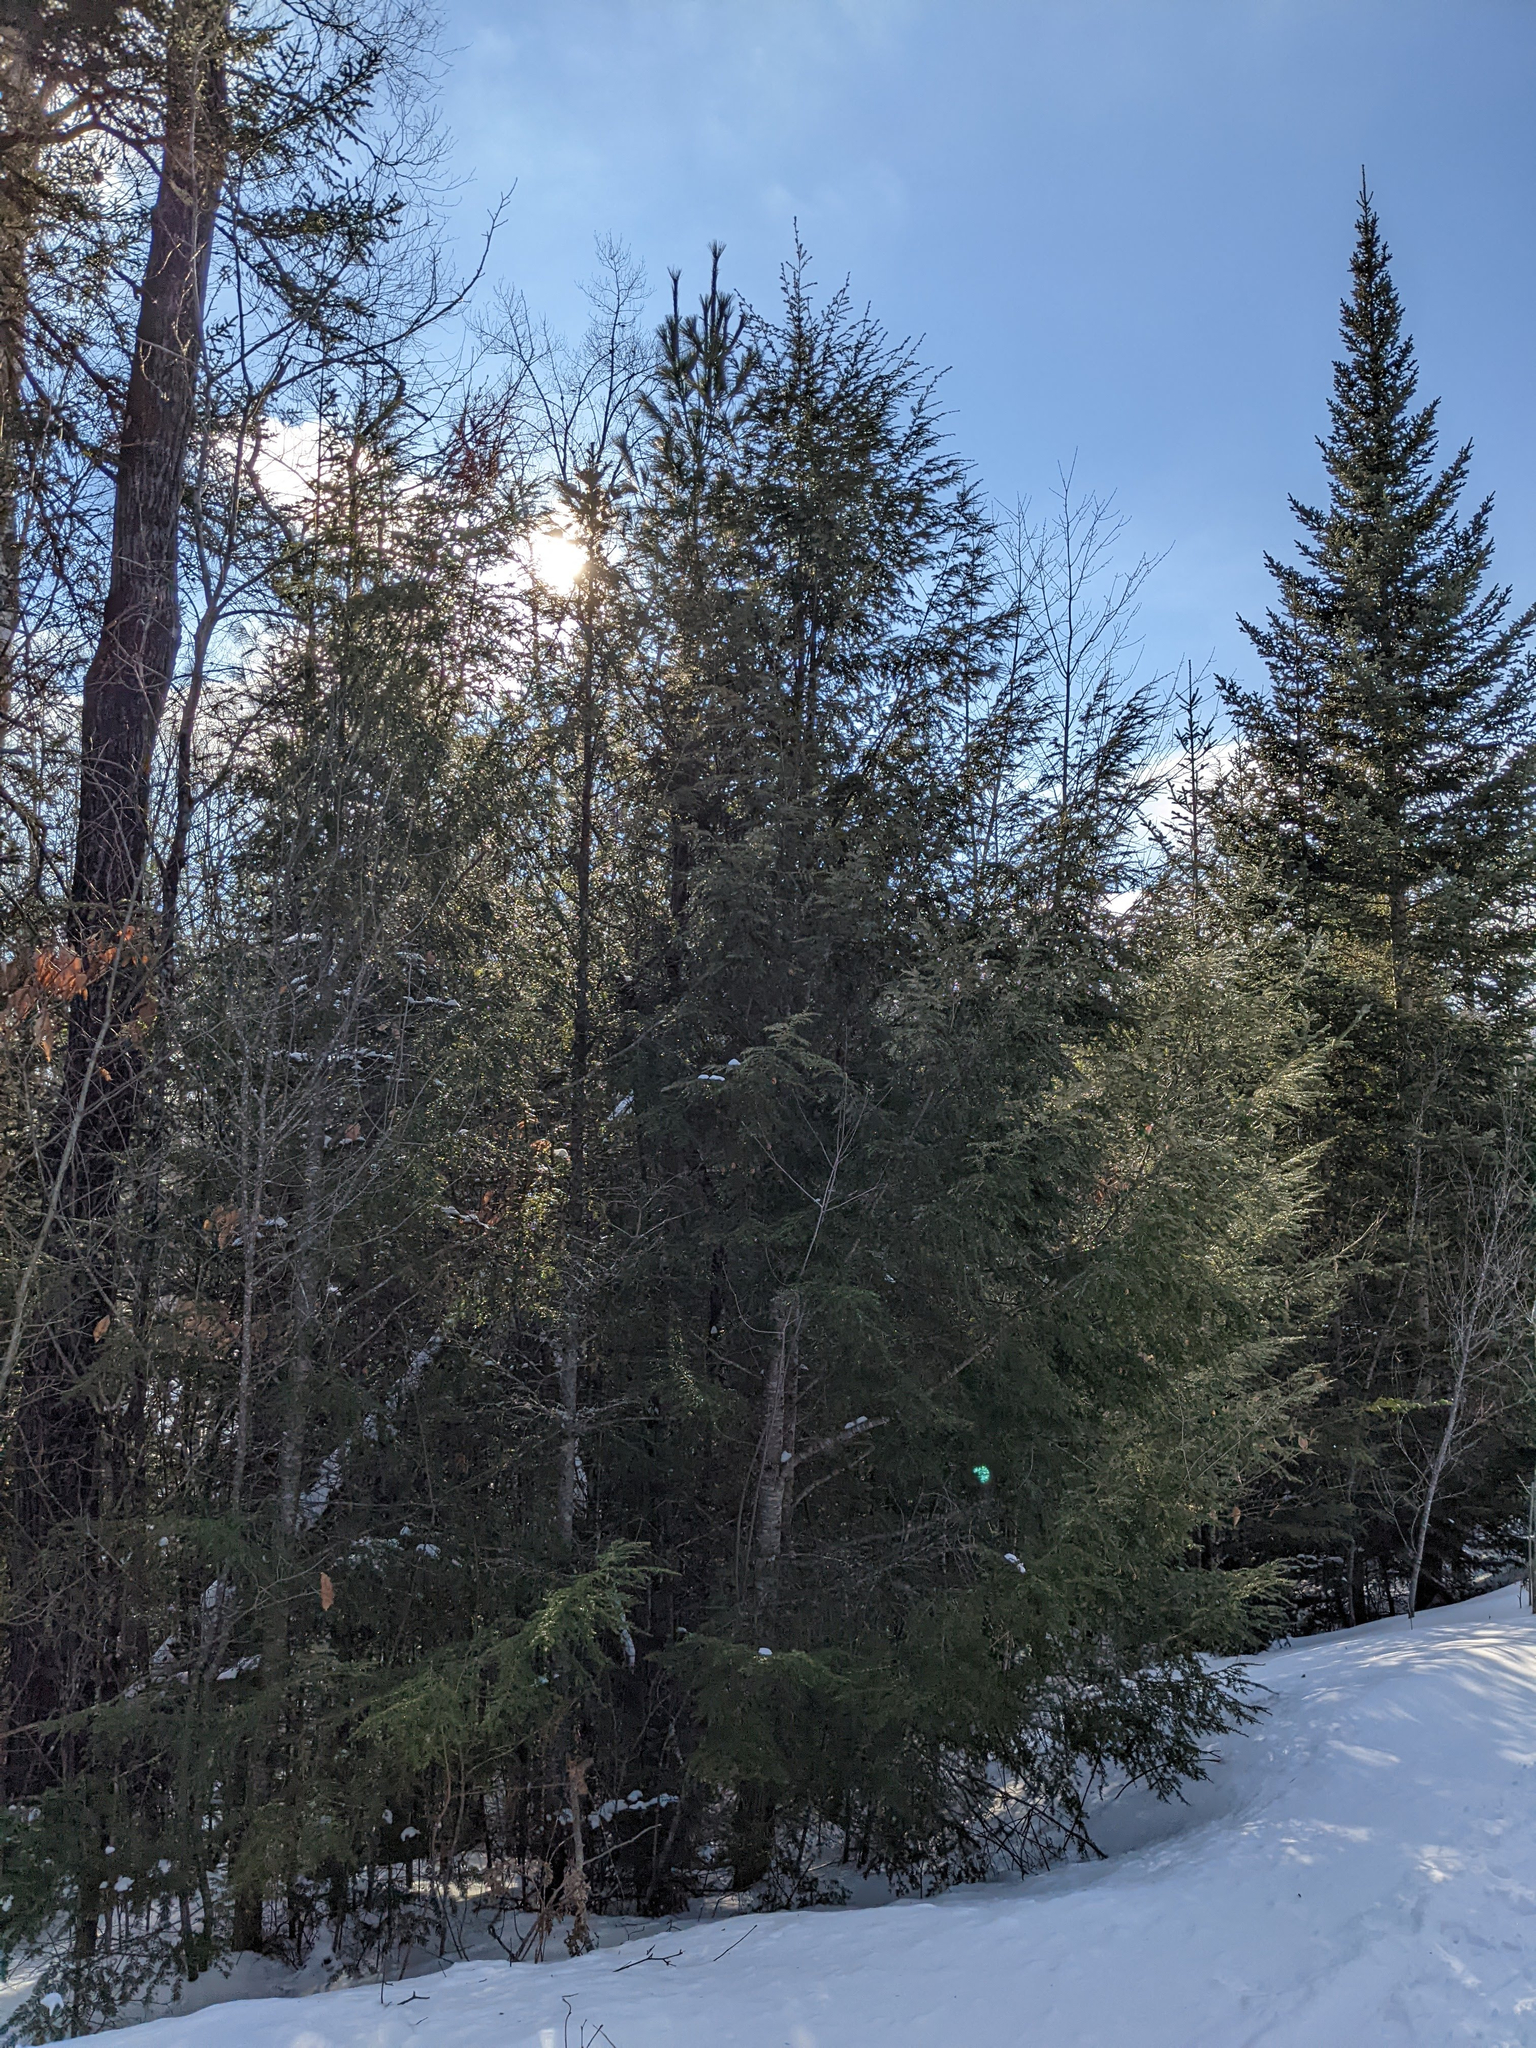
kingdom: Plantae
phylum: Tracheophyta
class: Pinopsida
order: Pinales
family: Pinaceae
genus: Pinus
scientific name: Pinus strobus
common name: Weymouth pine
